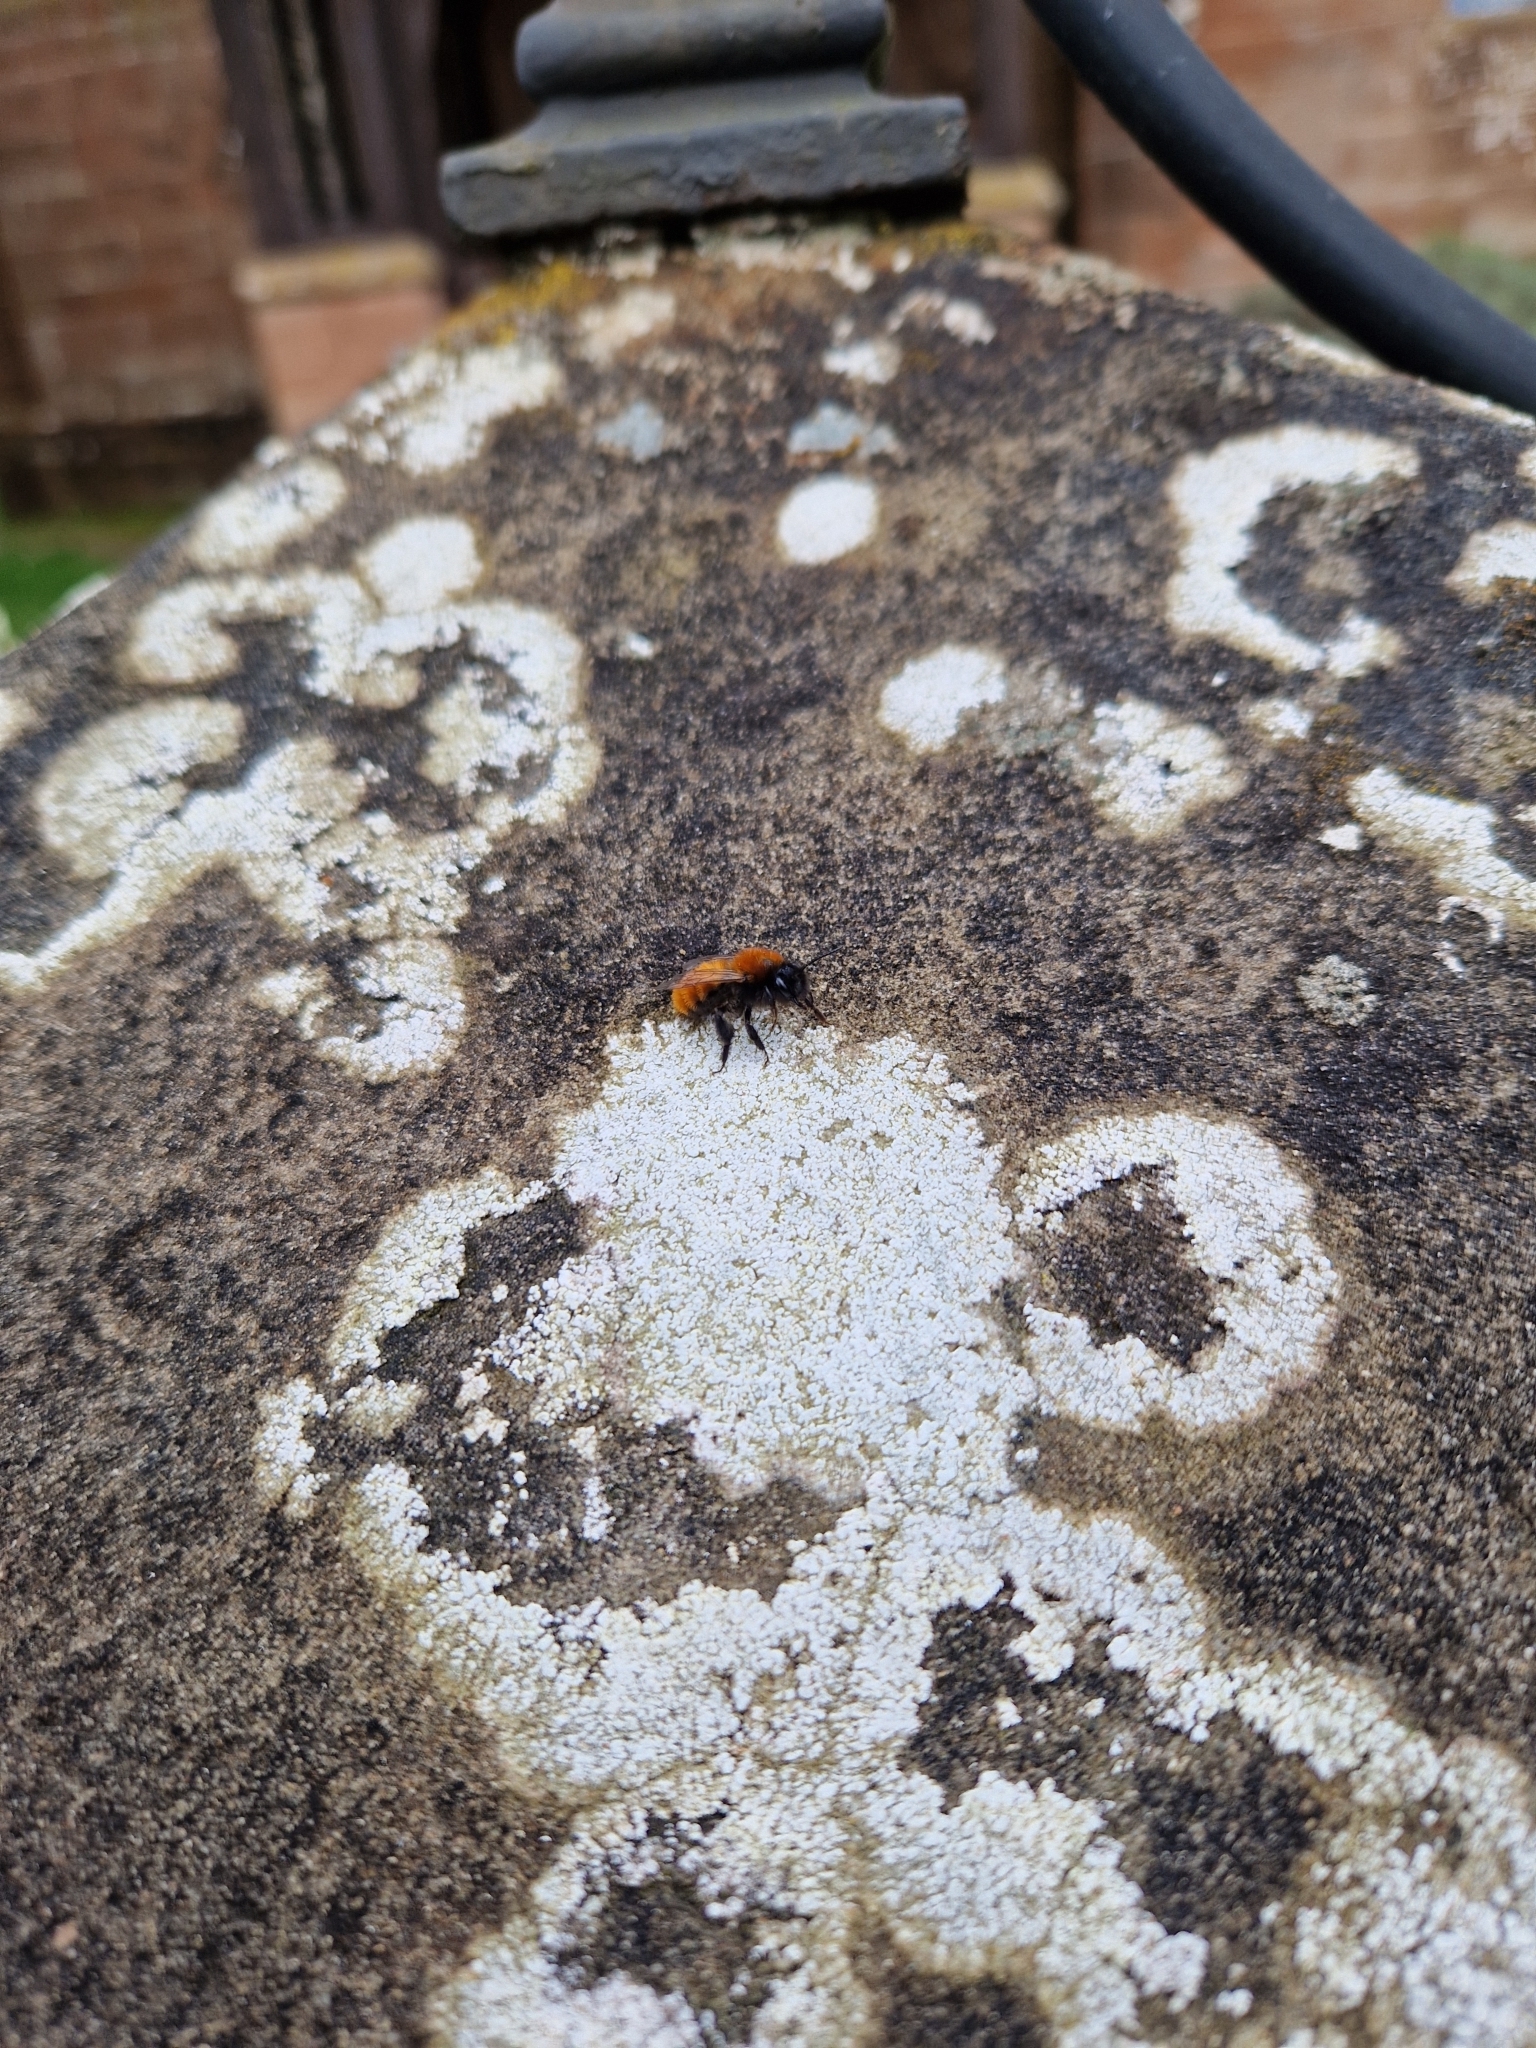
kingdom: Animalia
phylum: Arthropoda
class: Insecta
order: Hymenoptera
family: Andrenidae
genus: Andrena
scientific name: Andrena fulva
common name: Tawny mining bee
